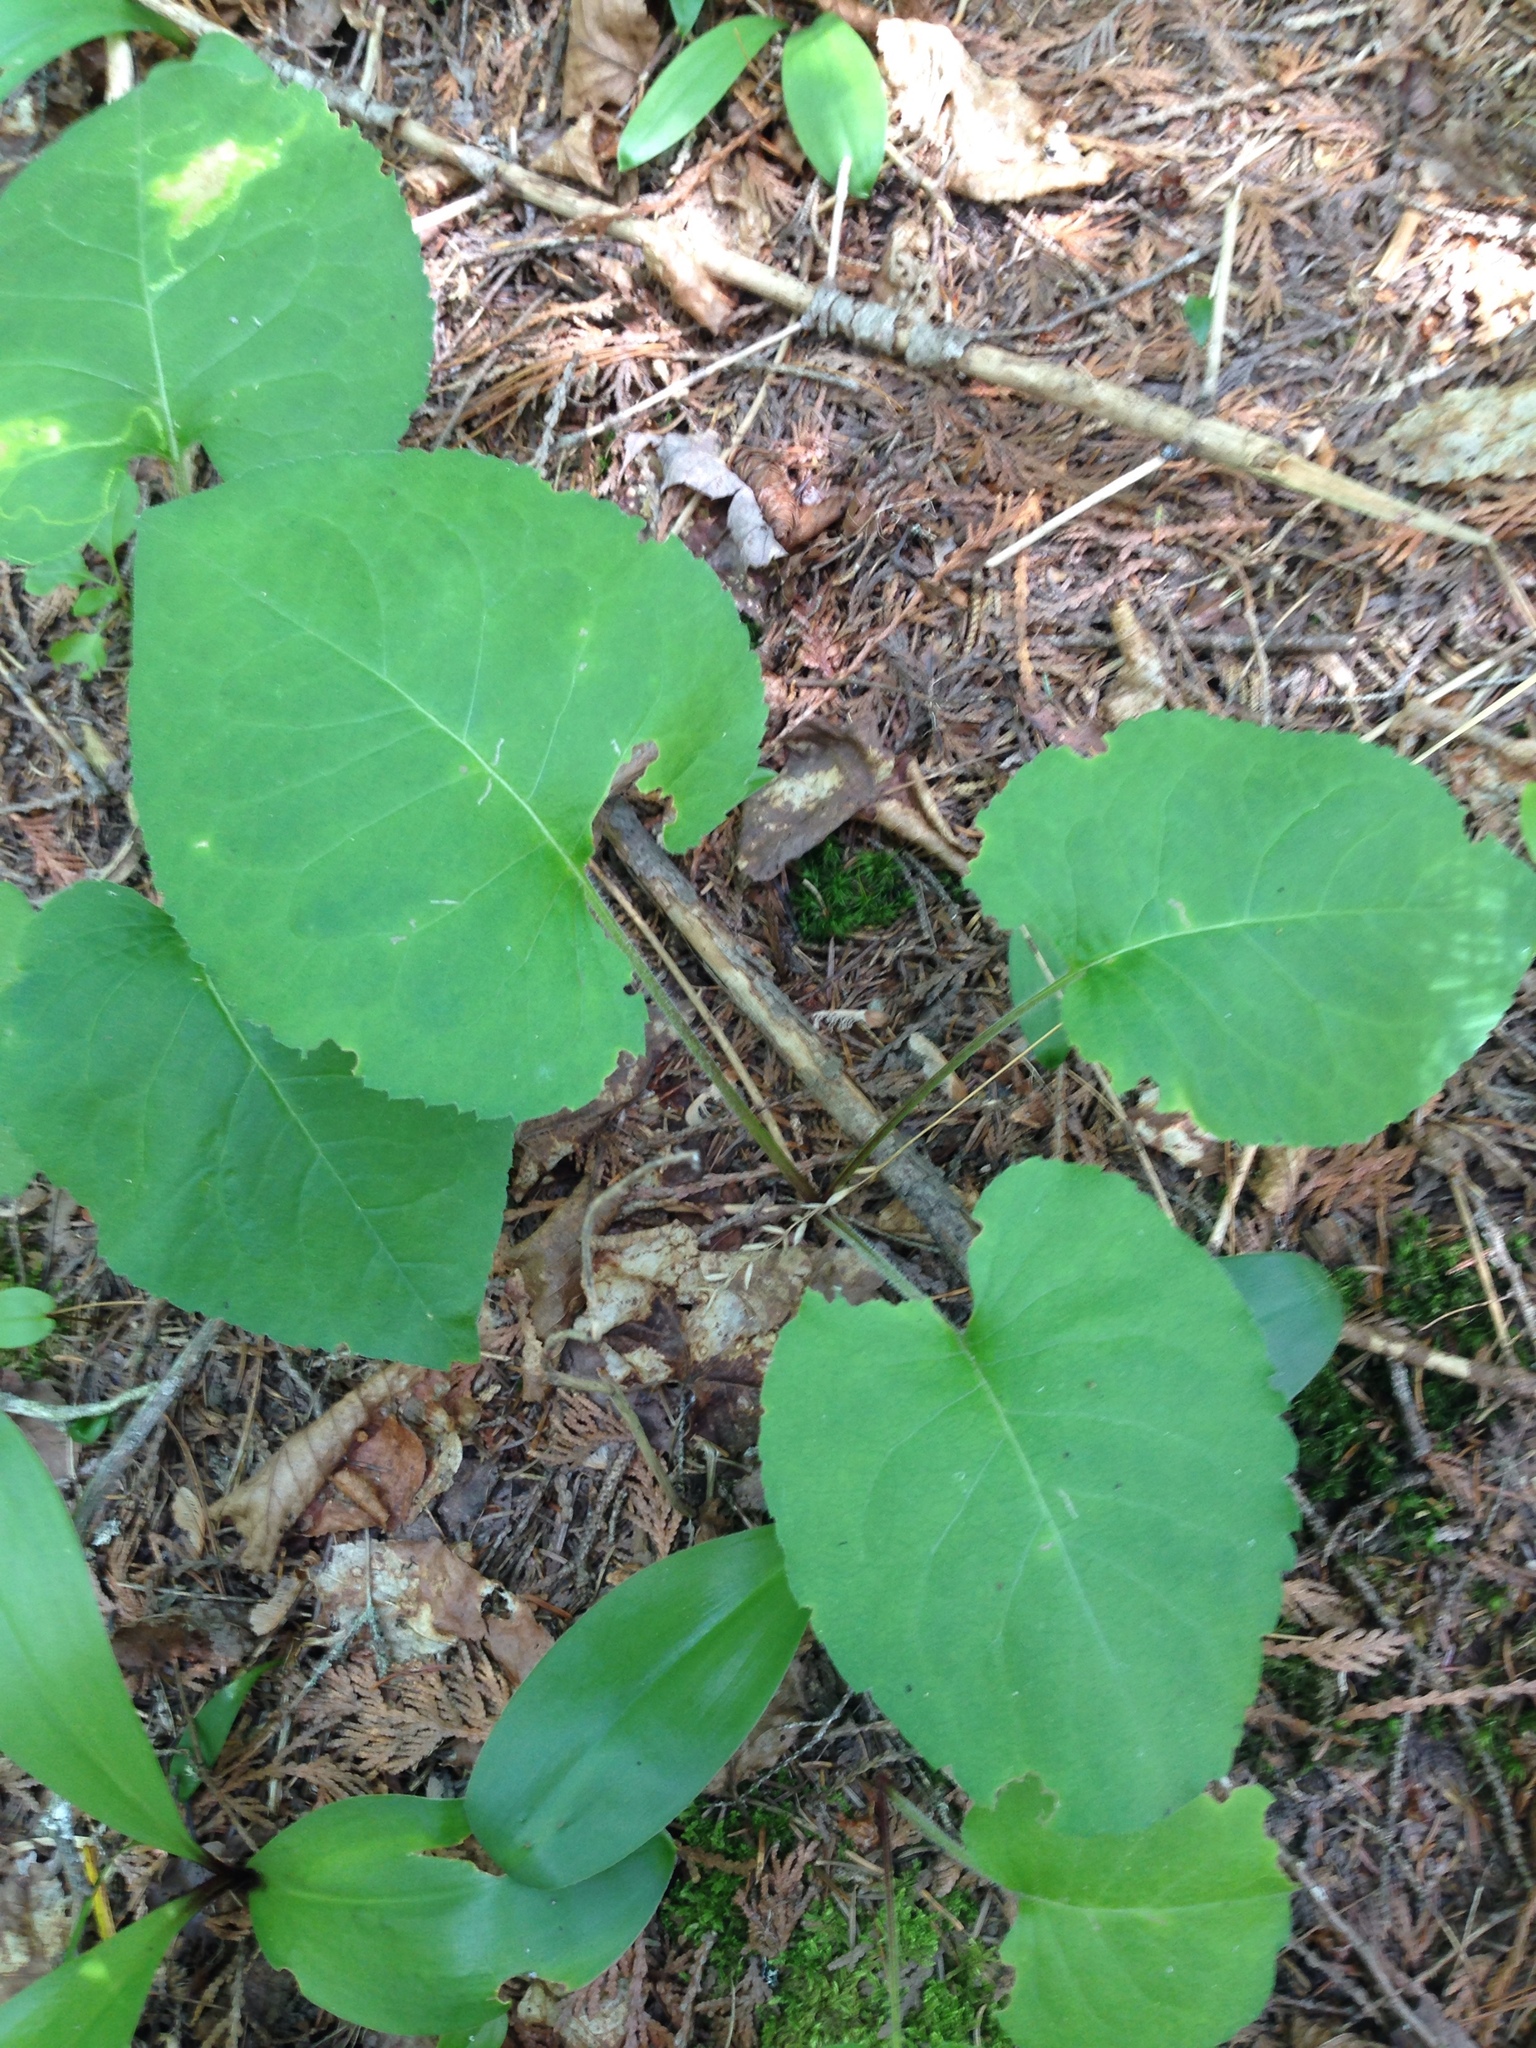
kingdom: Plantae
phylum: Tracheophyta
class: Magnoliopsida
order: Asterales
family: Asteraceae
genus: Eurybia
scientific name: Eurybia macrophylla
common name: Big-leaved aster
